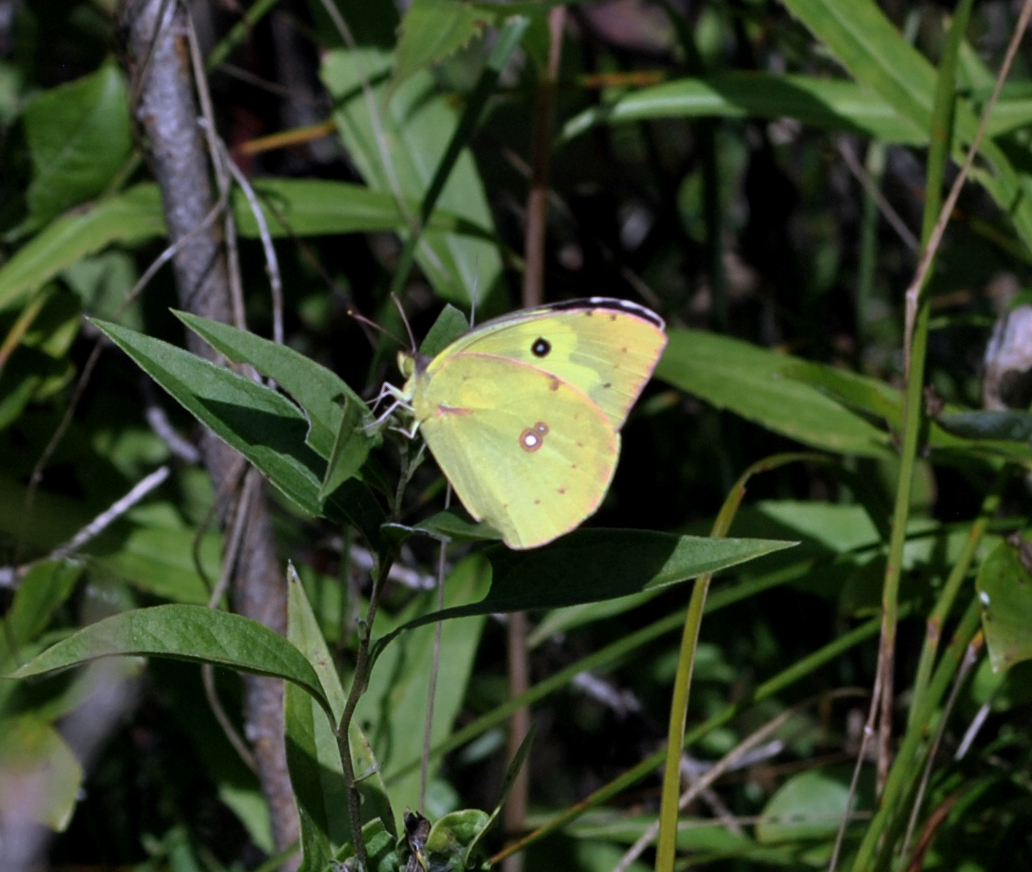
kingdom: Animalia
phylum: Arthropoda
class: Insecta
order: Lepidoptera
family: Pieridae
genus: Zerene
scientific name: Zerene cesonia
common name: Southern dogface
